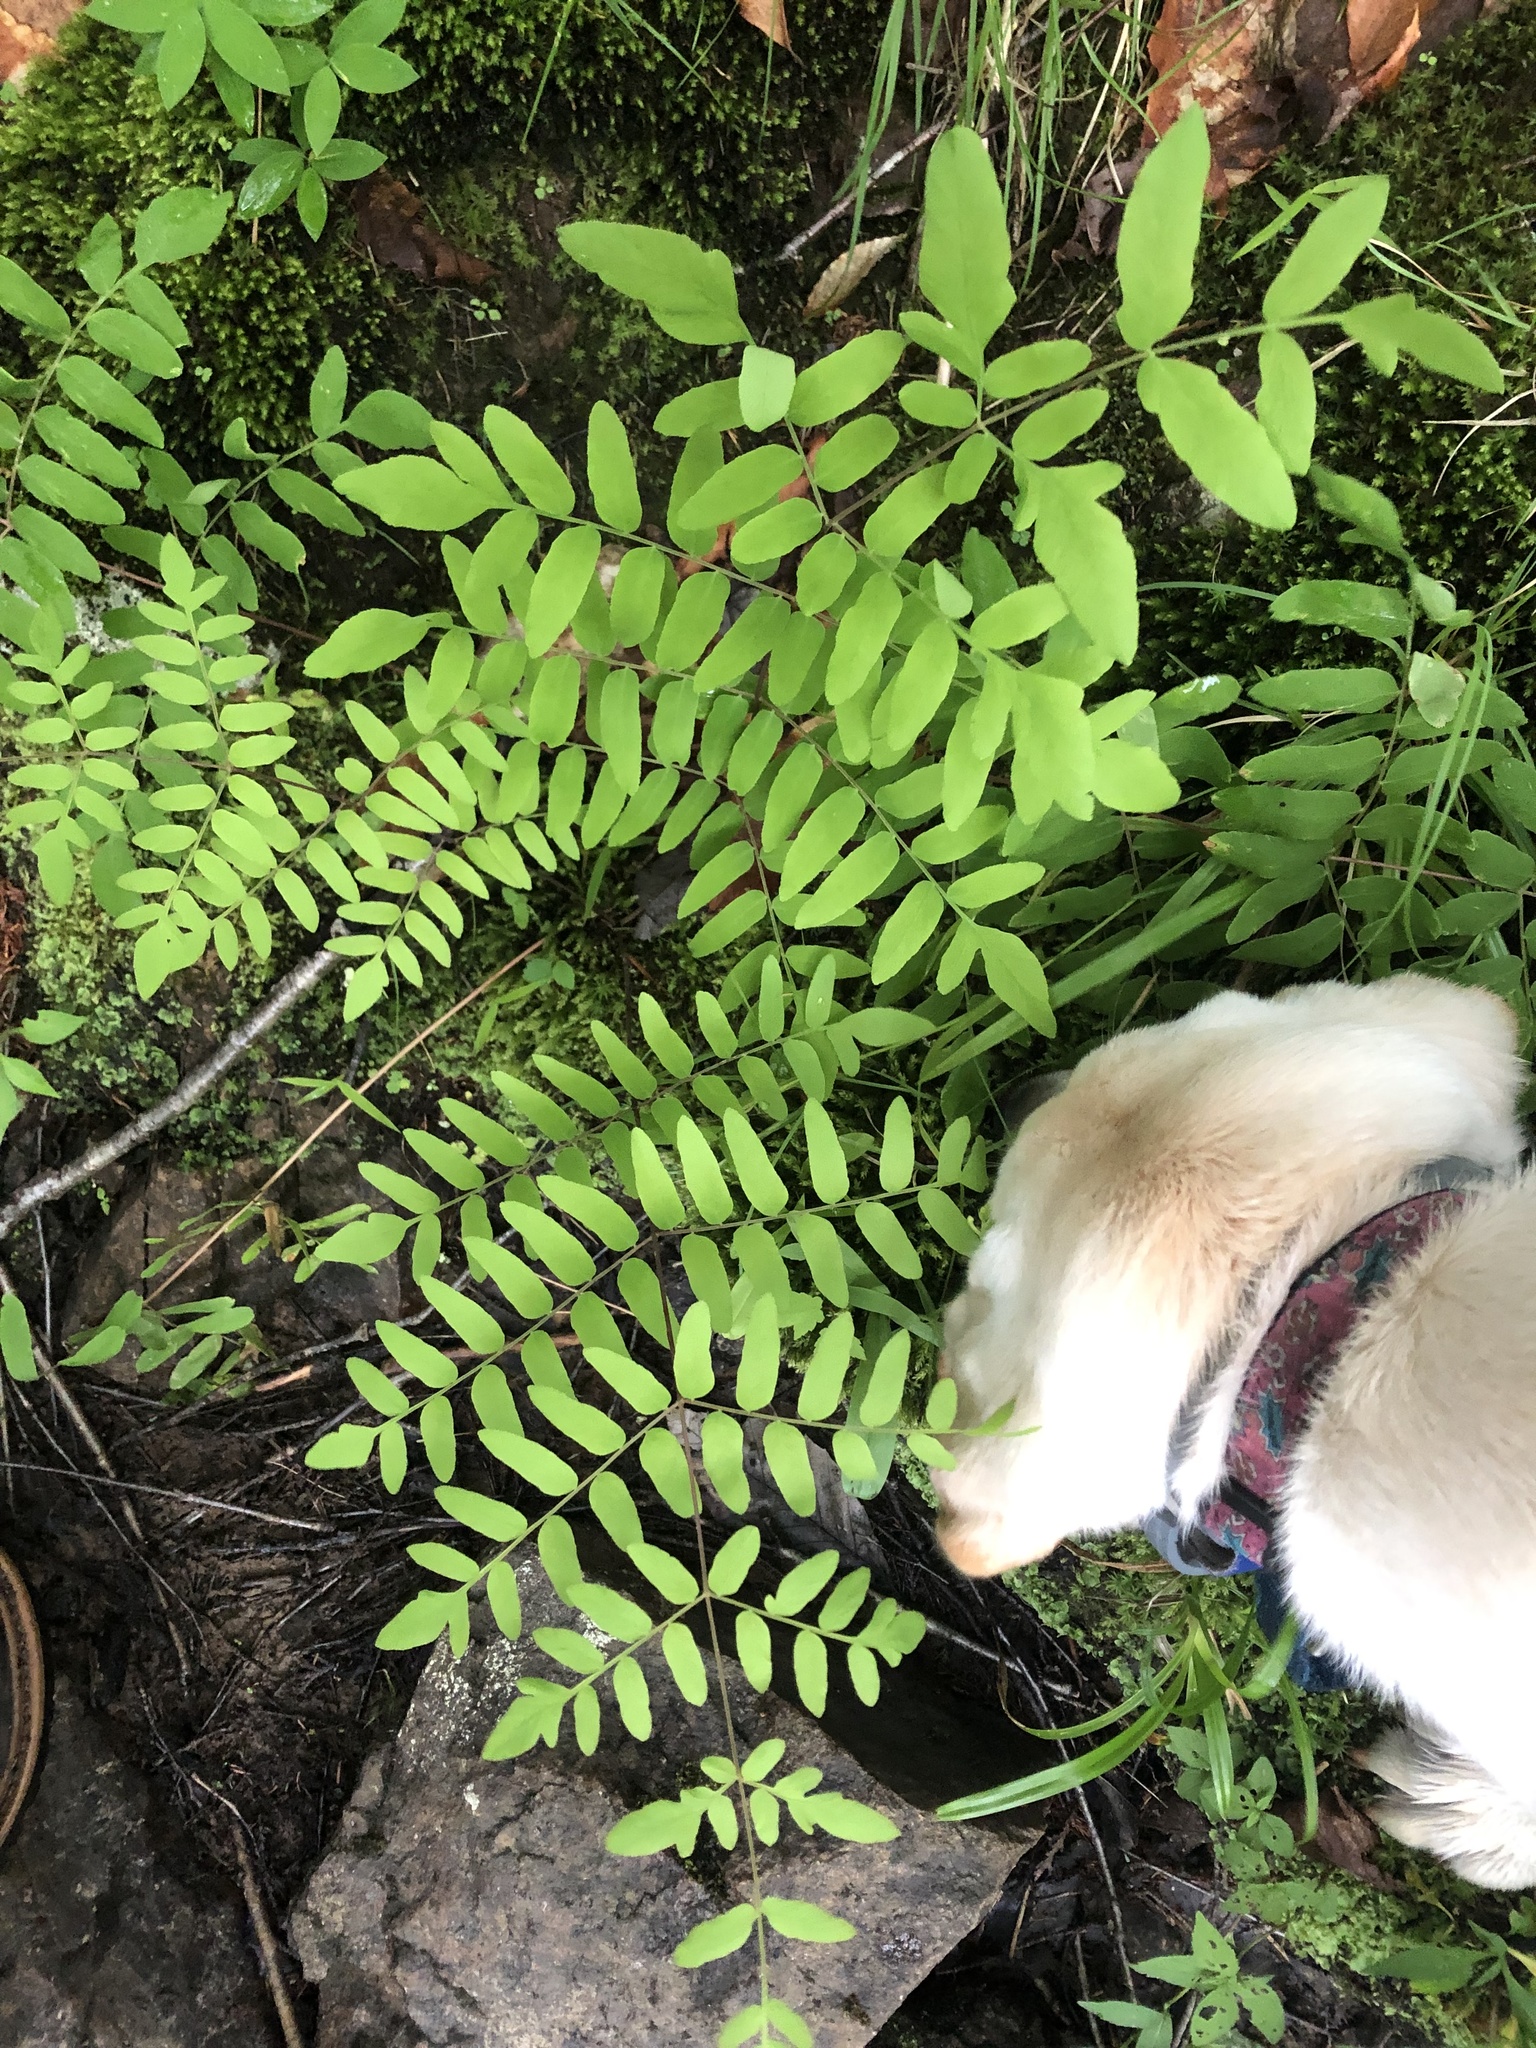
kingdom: Plantae
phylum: Tracheophyta
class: Polypodiopsida
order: Osmundales
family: Osmundaceae
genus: Osmunda
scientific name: Osmunda spectabilis
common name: American royal fern
